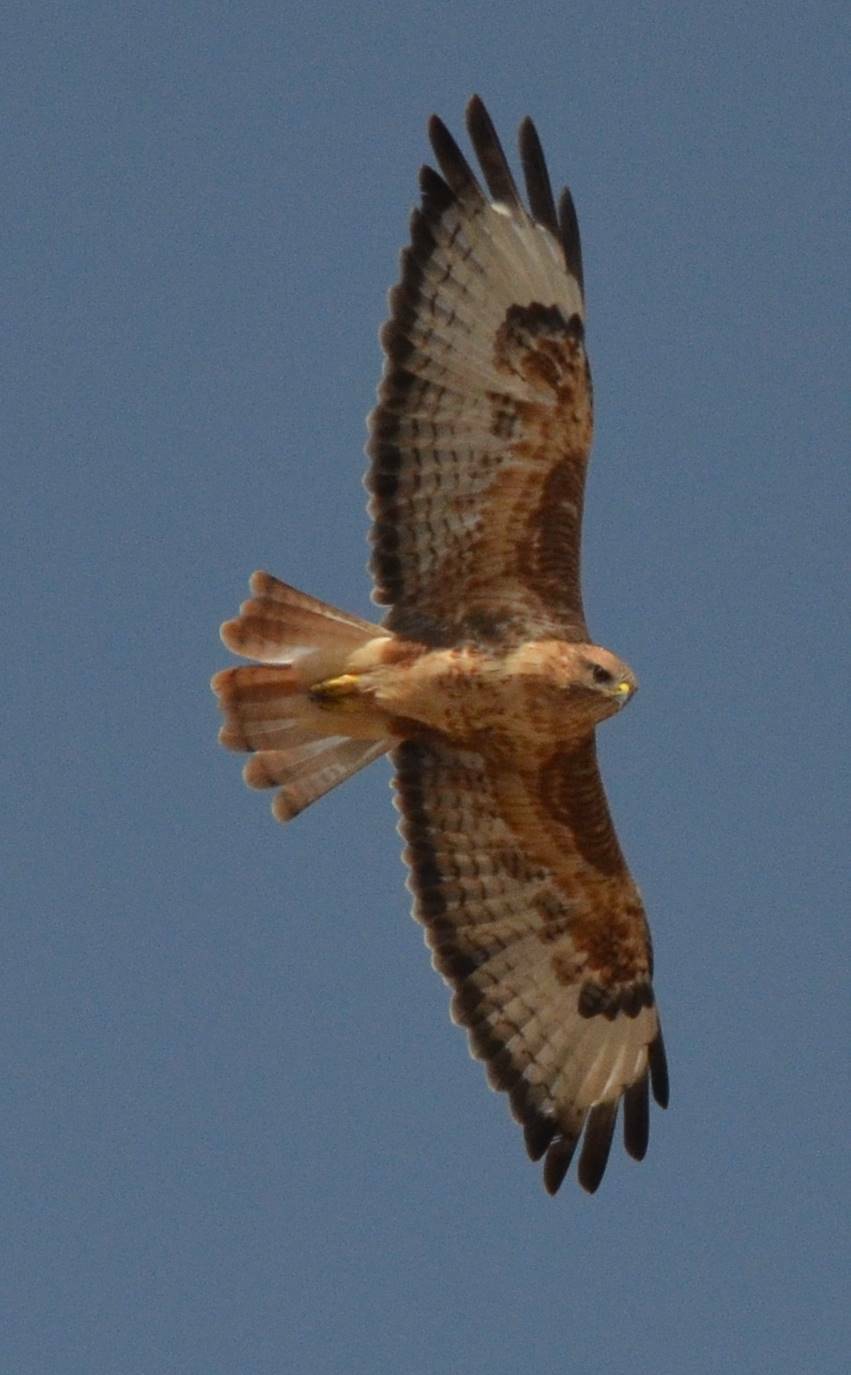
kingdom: Animalia
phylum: Chordata
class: Aves
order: Accipitriformes
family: Accipitridae
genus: Buteo
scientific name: Buteo rufinus
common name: Long-legged buzzard
